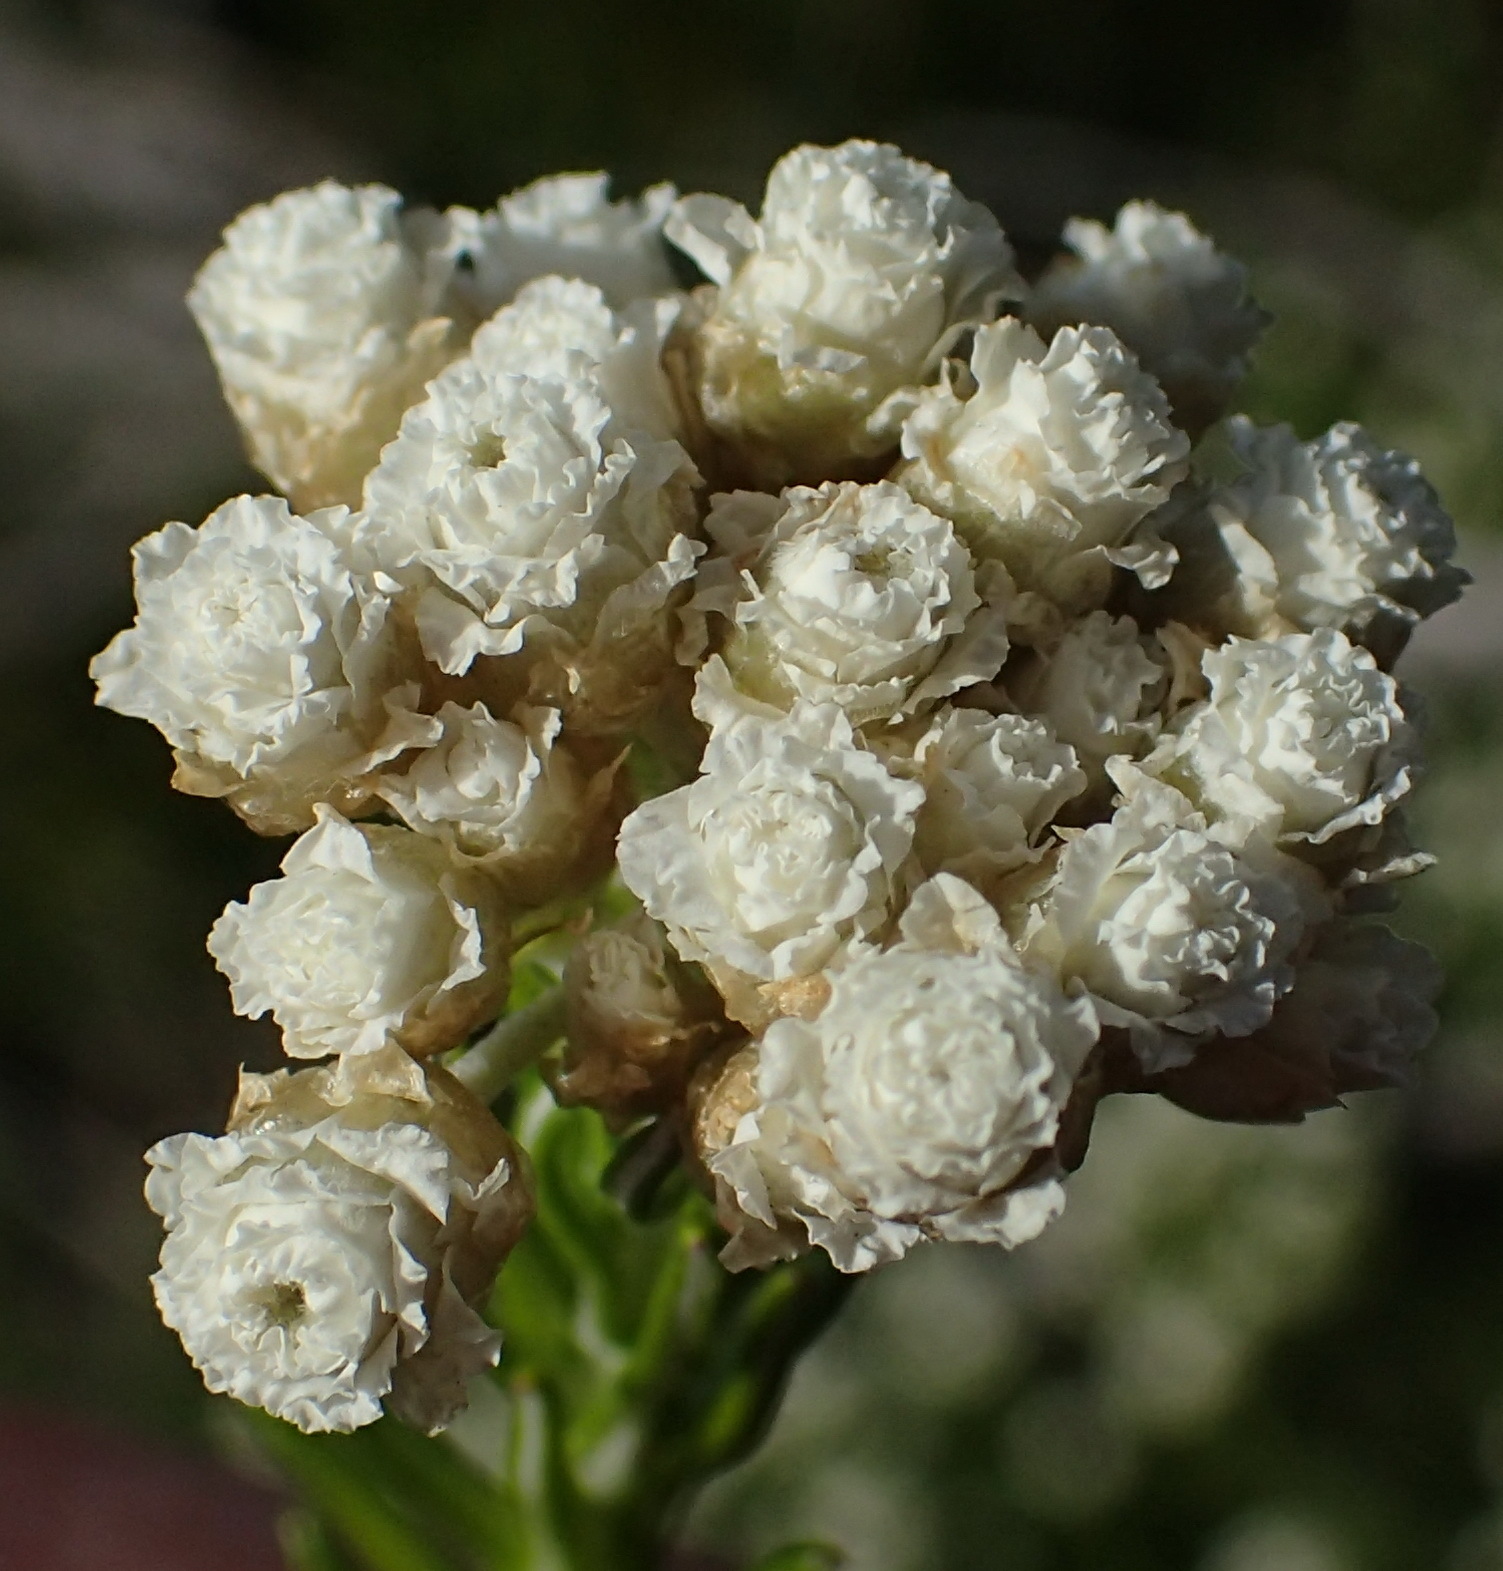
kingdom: Plantae
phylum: Tracheophyta
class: Magnoliopsida
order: Asterales
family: Asteraceae
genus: Helichrysum
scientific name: Helichrysum teretifolium
